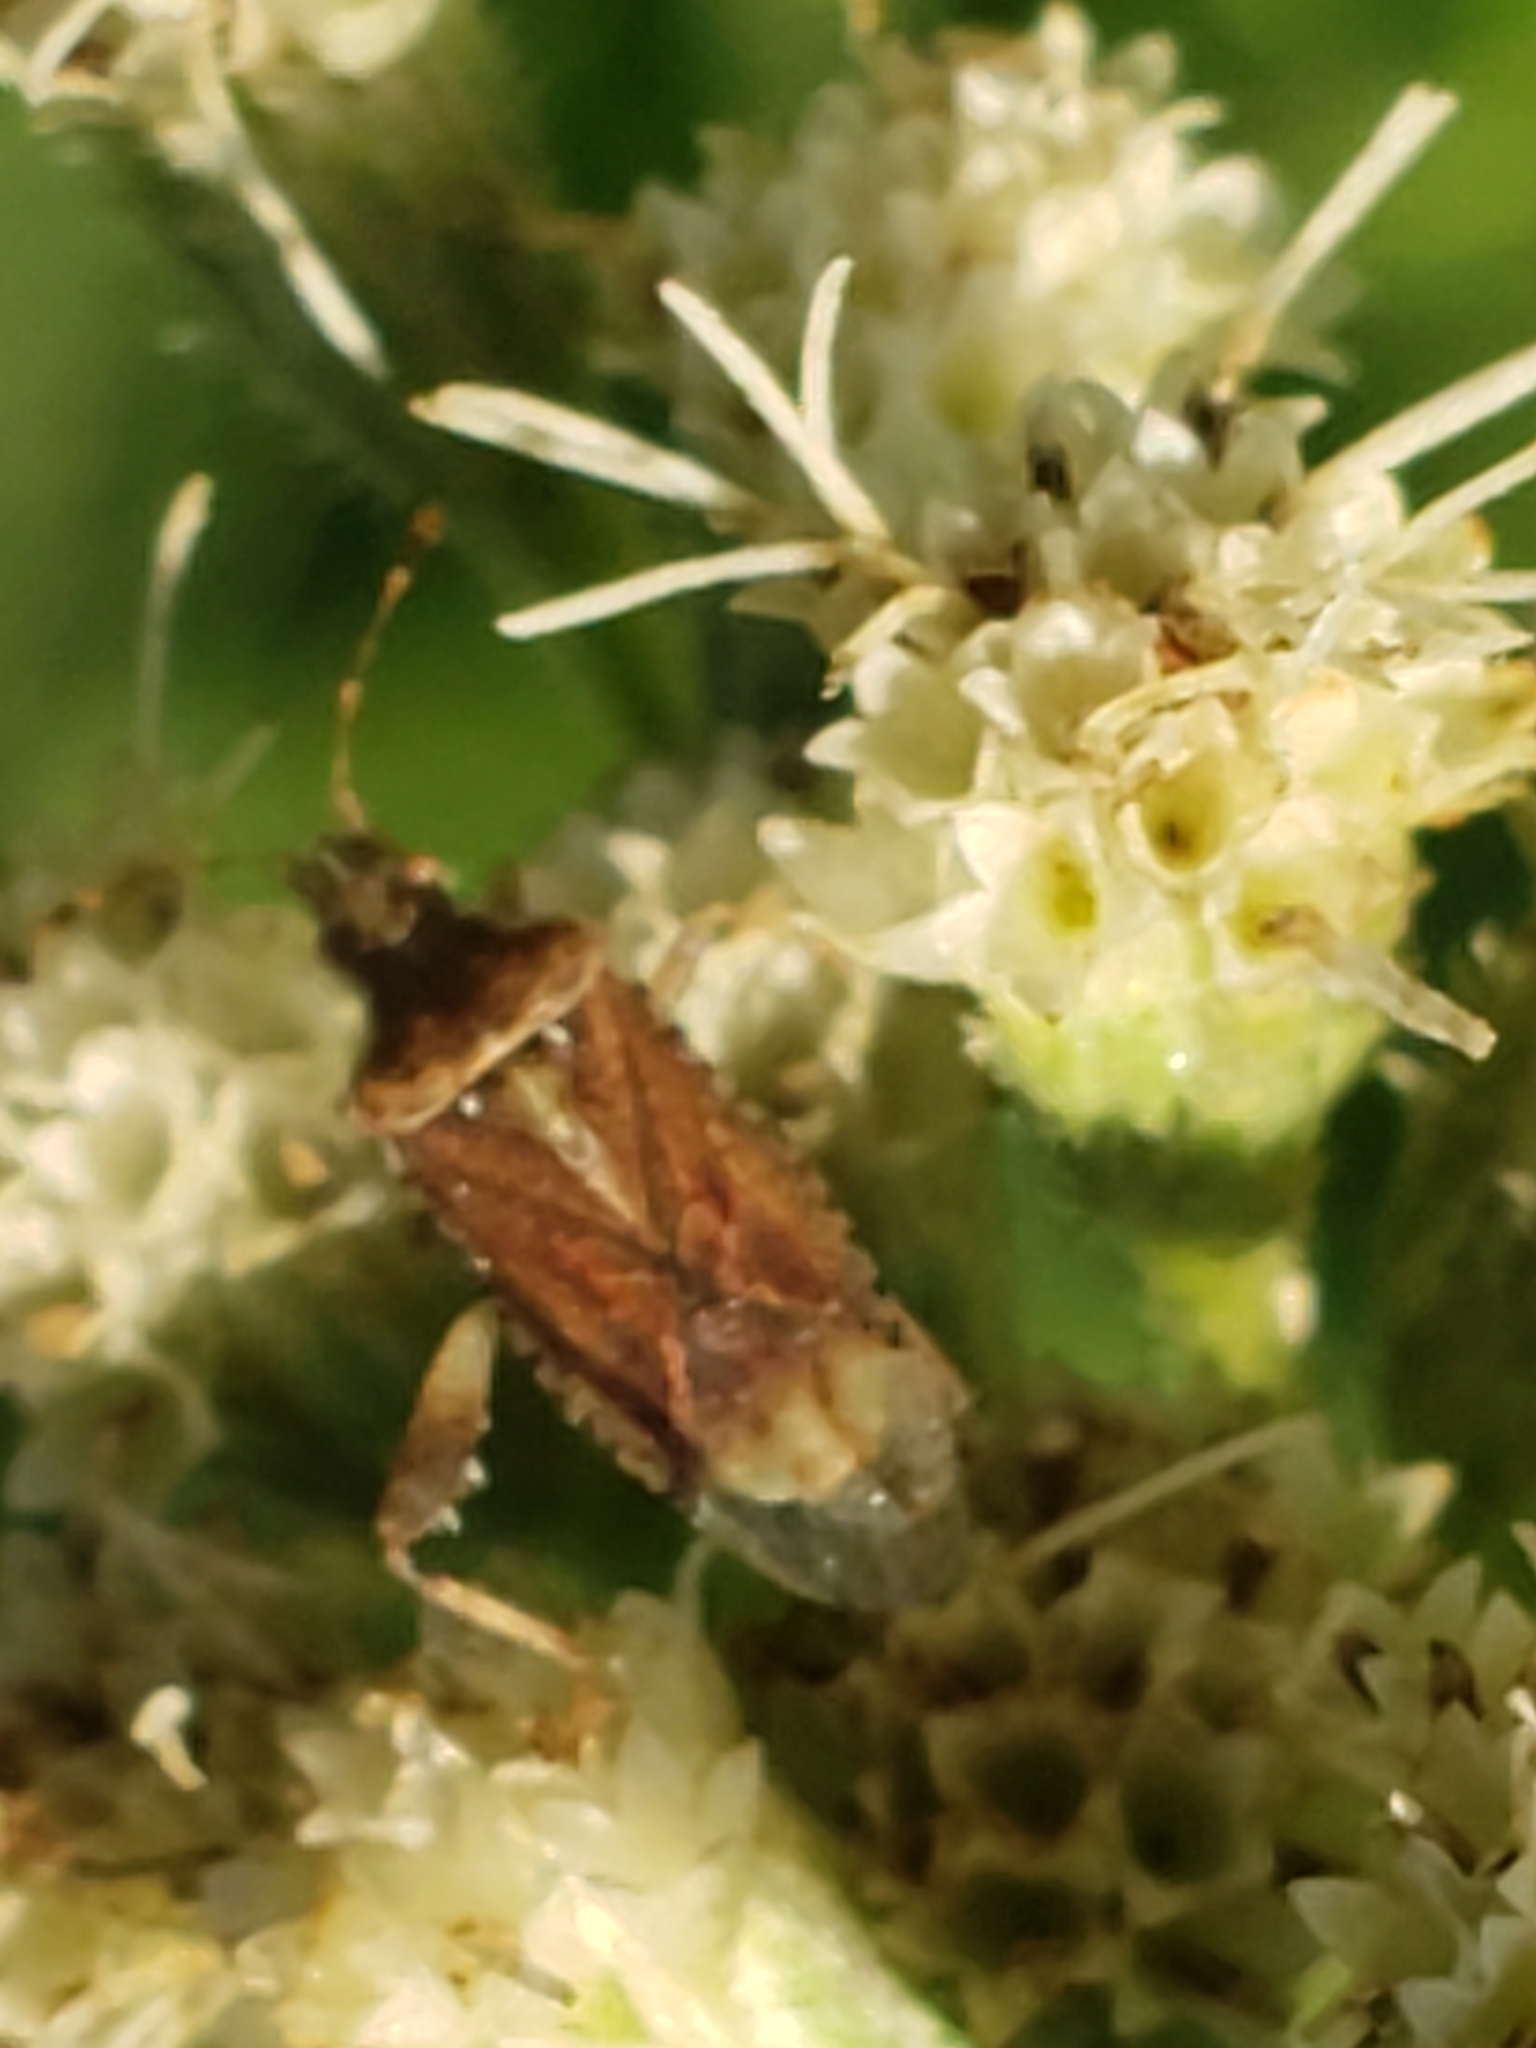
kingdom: Animalia
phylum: Arthropoda
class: Insecta
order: Hemiptera
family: Rhopalidae
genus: Harmostes
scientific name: Harmostes fraterculus
